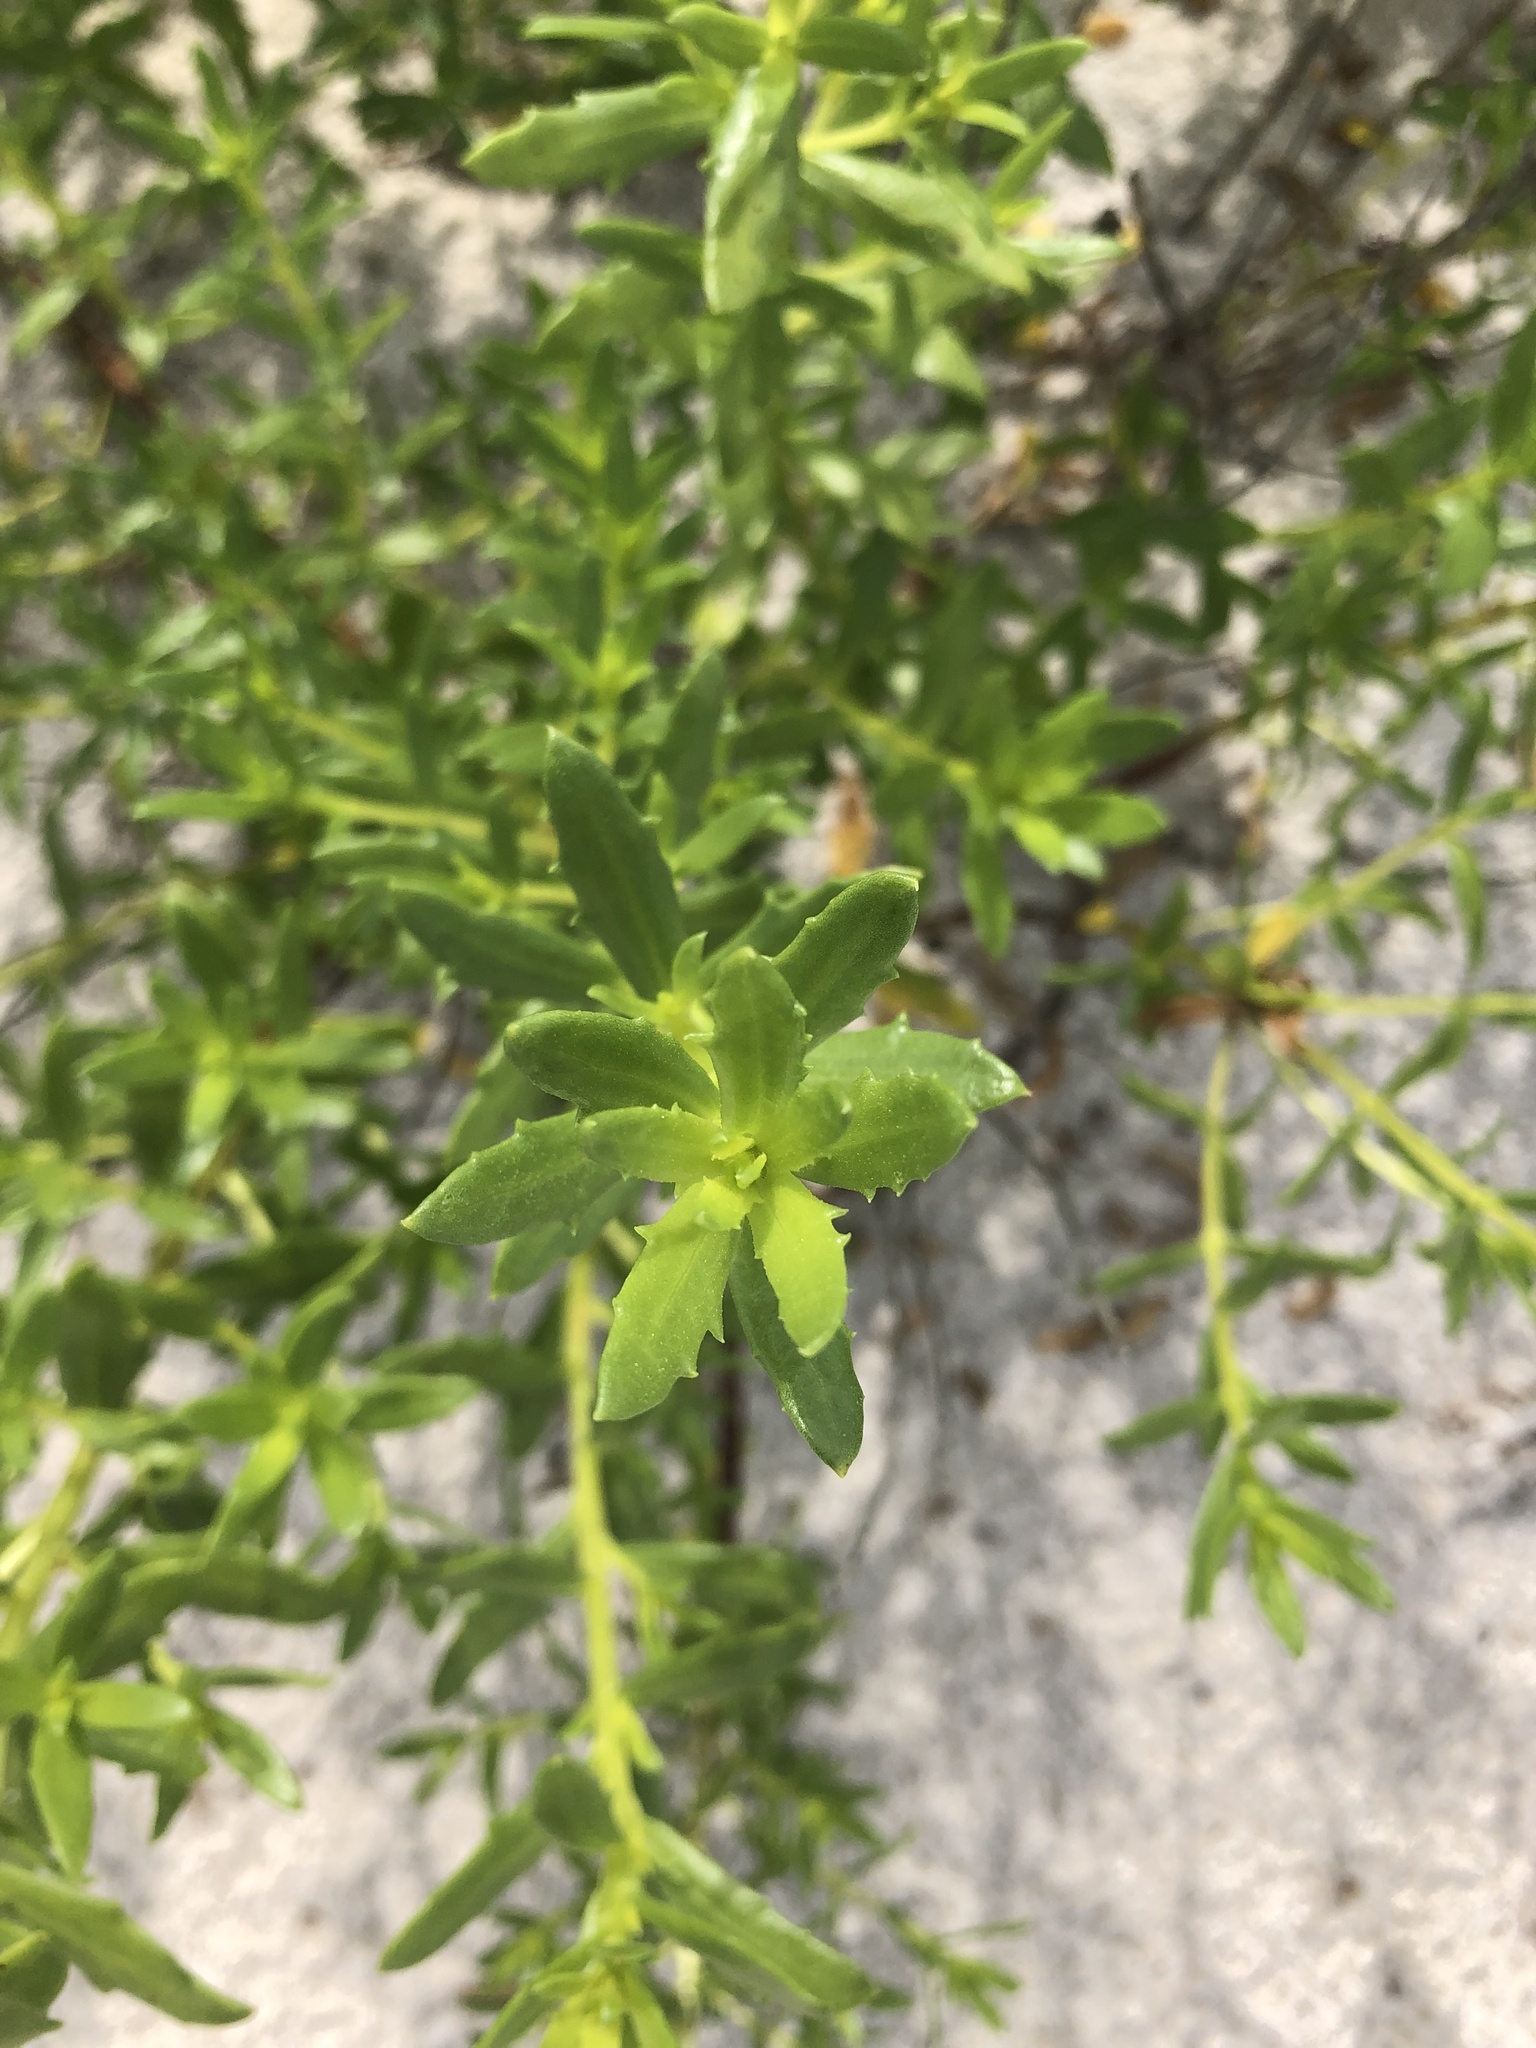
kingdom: Plantae
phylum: Tracheophyta
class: Magnoliopsida
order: Asterales
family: Asteraceae
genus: Iva
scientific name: Iva imbricata
